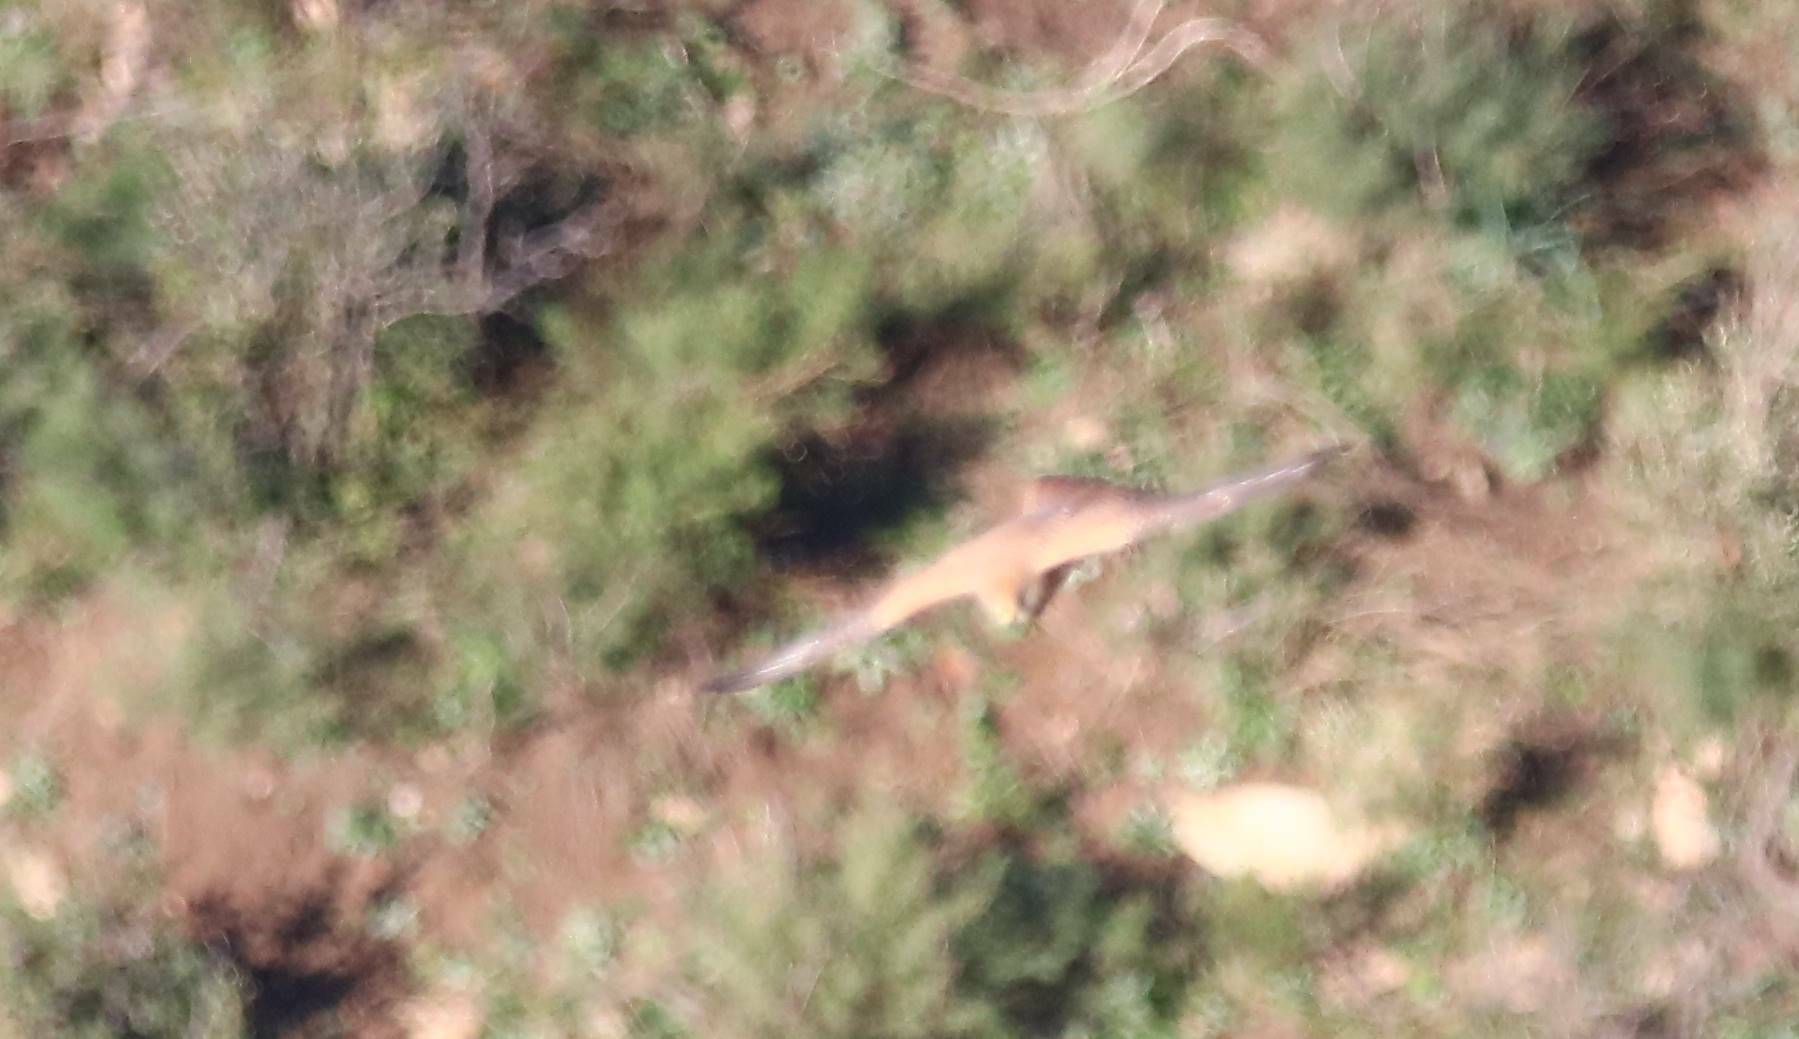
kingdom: Animalia
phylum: Chordata
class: Aves
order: Falconiformes
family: Falconidae
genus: Falco
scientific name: Falco naumanni
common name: Lesser kestrel
